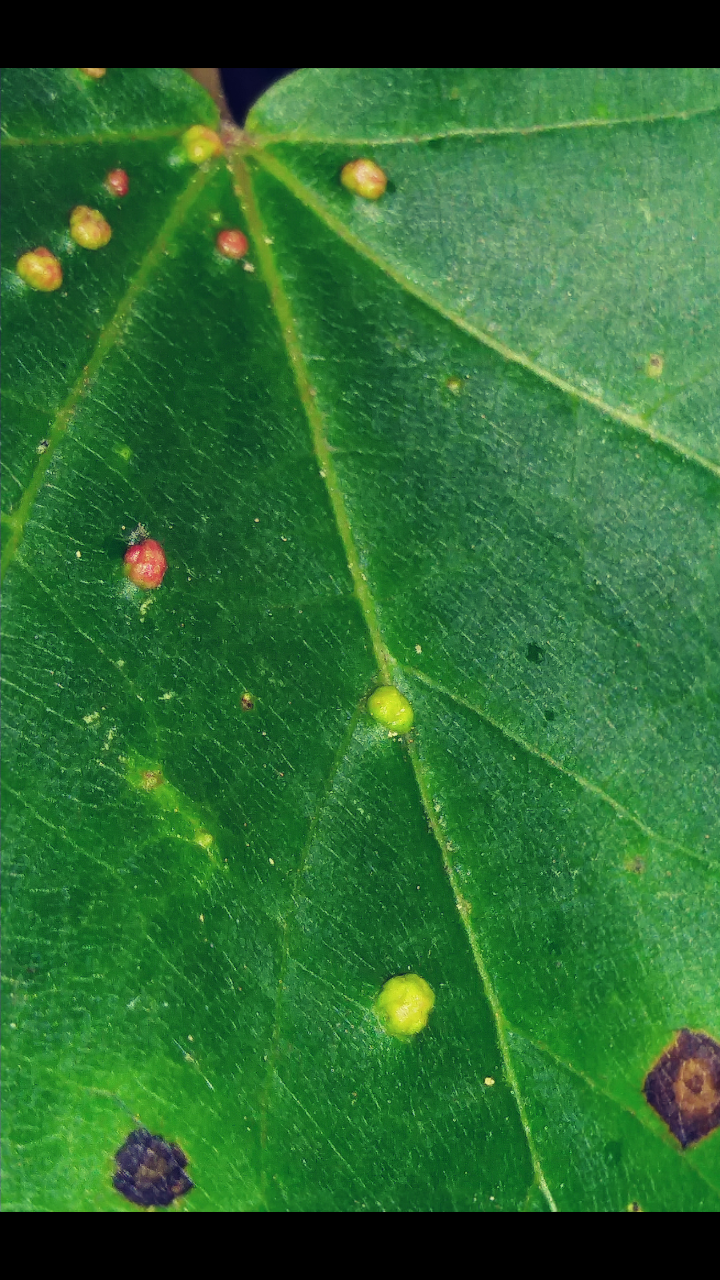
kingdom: Animalia
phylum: Arthropoda
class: Arachnida
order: Trombidiformes
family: Eriophyidae
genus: Vasates
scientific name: Vasates quadripedes
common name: Maple bladder gall mite
